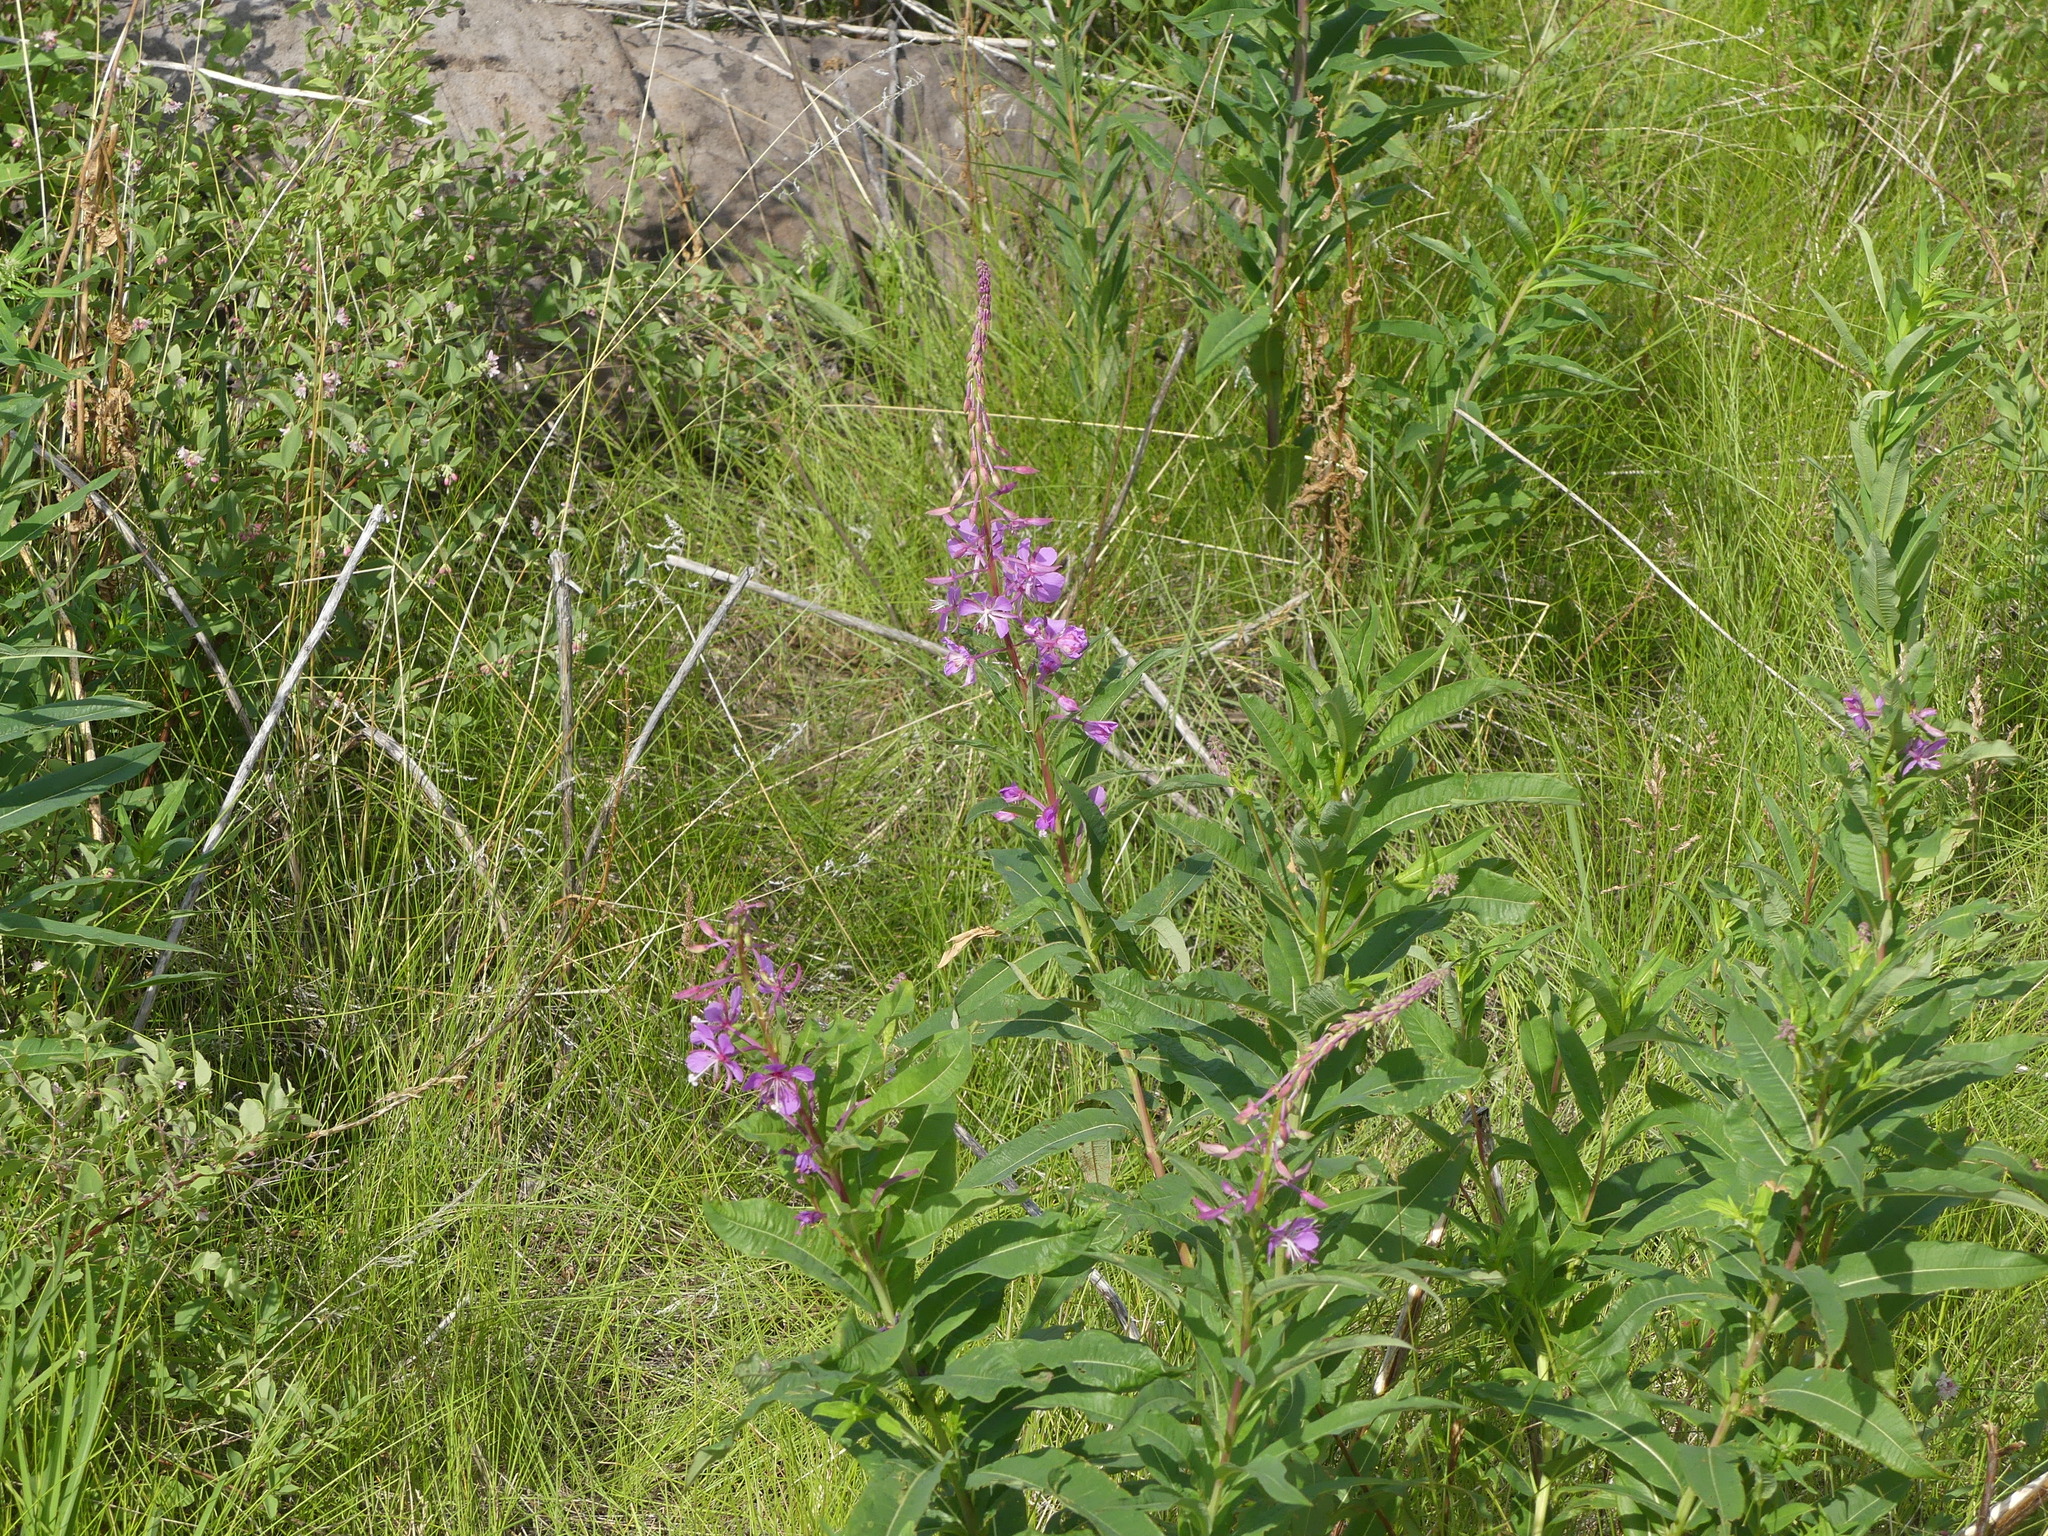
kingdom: Plantae
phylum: Tracheophyta
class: Magnoliopsida
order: Myrtales
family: Onagraceae
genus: Chamaenerion
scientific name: Chamaenerion angustifolium
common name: Fireweed
